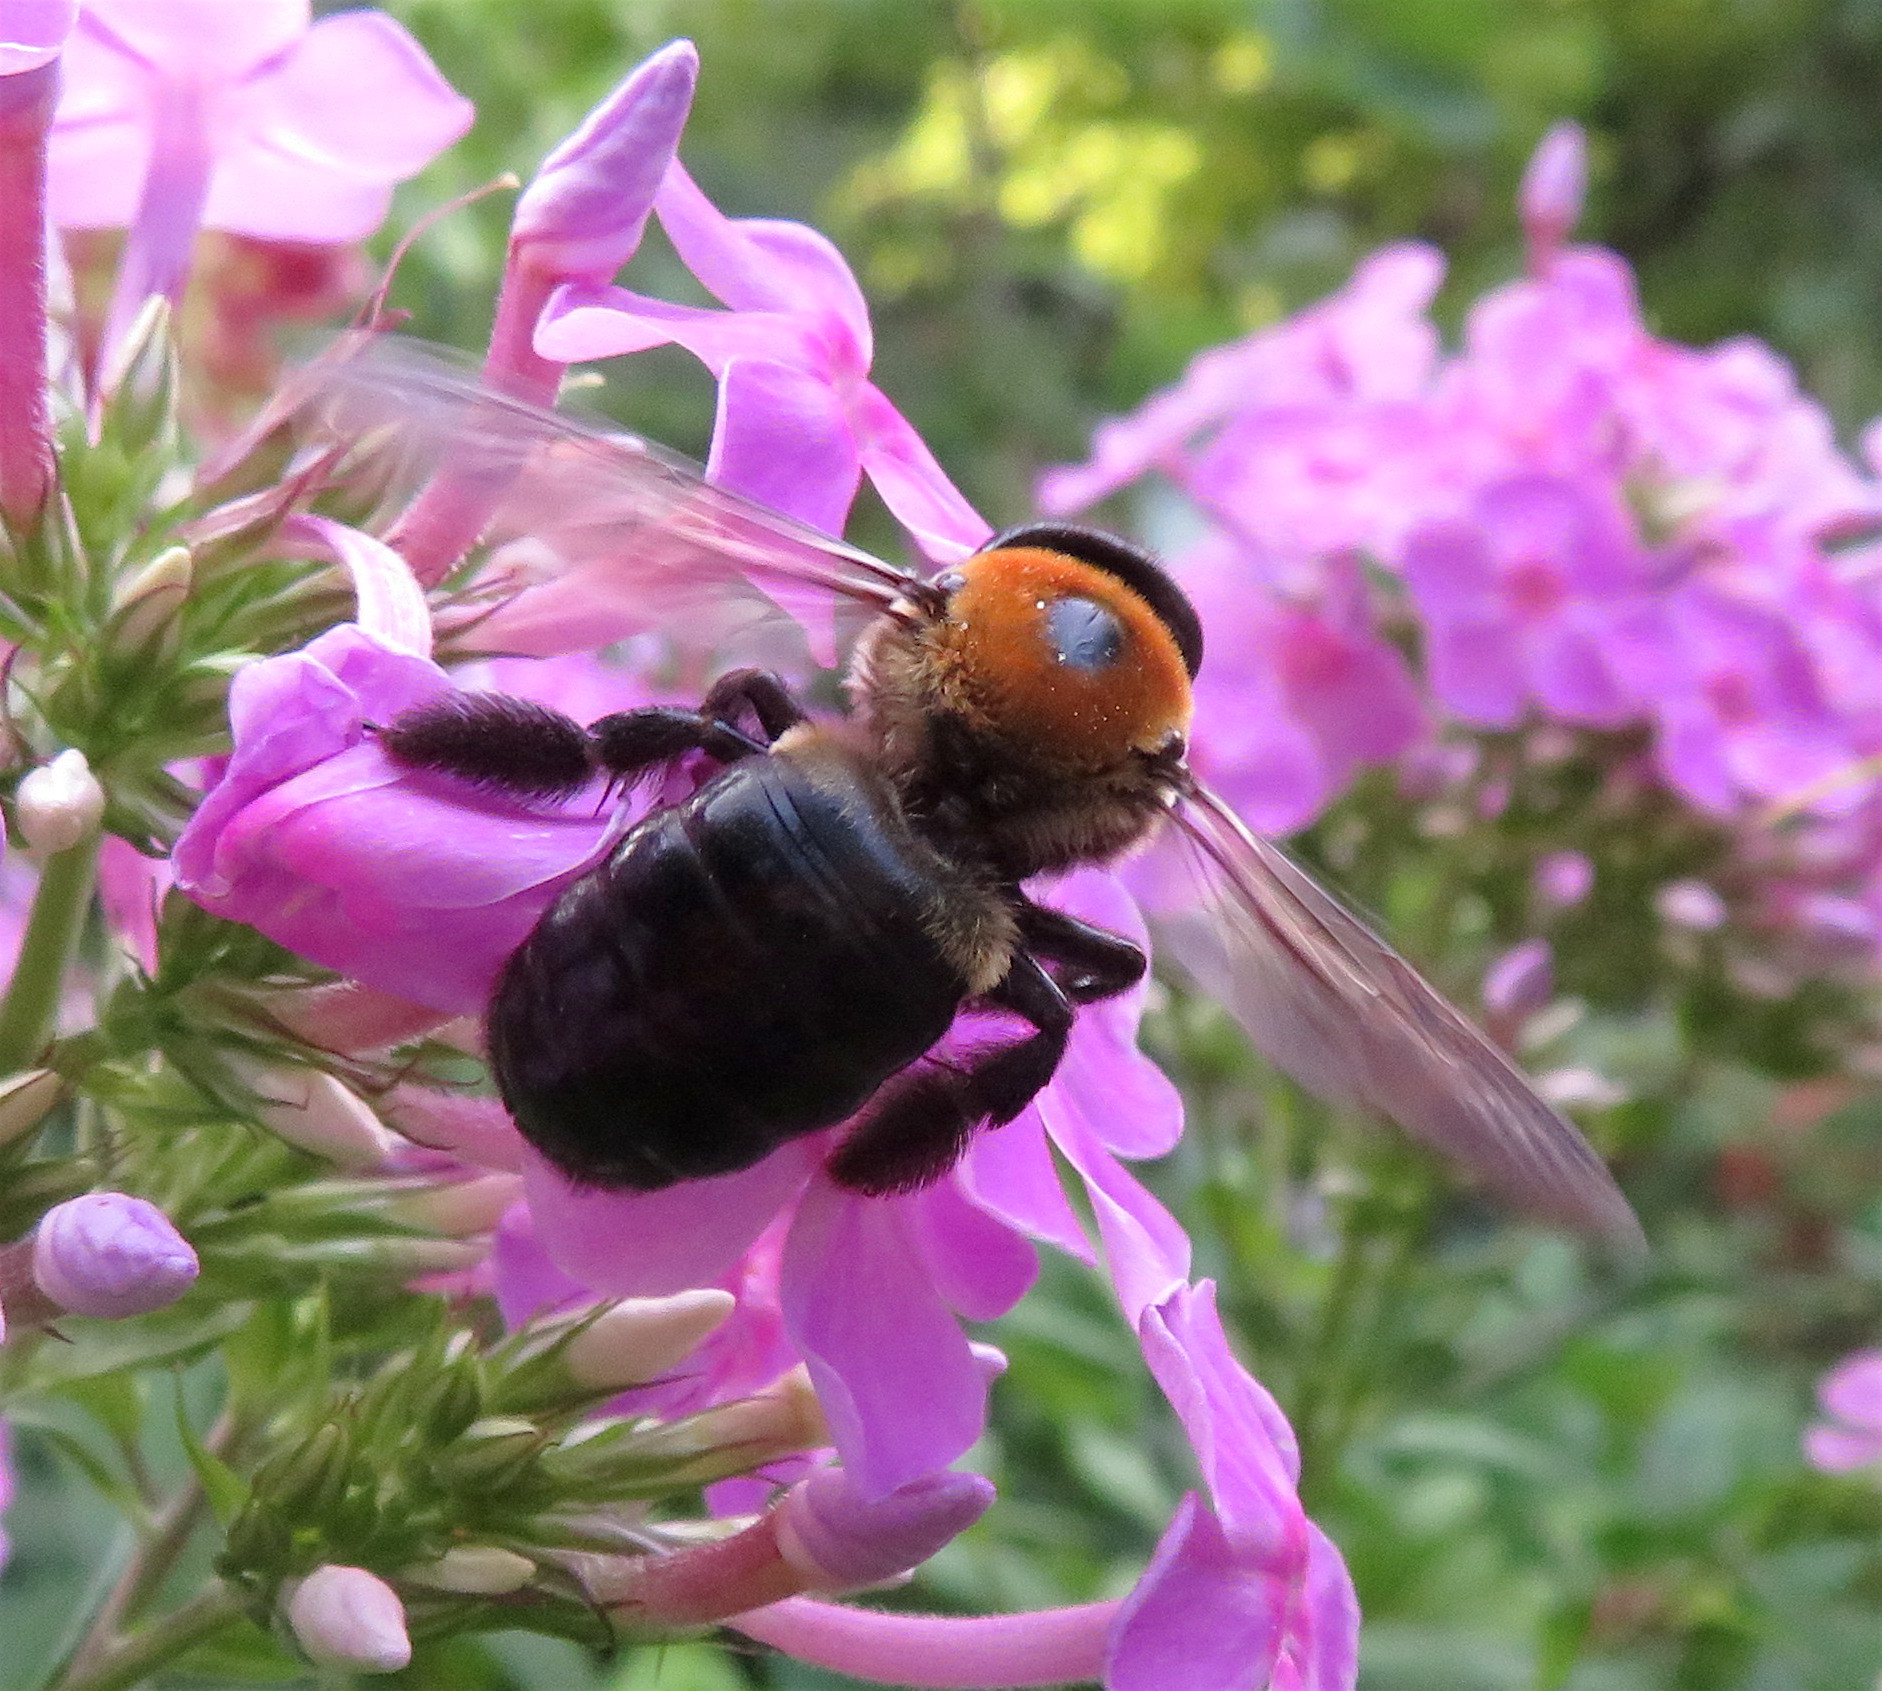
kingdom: Animalia
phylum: Arthropoda
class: Insecta
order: Hymenoptera
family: Apidae
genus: Xylocopa
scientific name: Xylocopa virginica
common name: Carpenter bee
